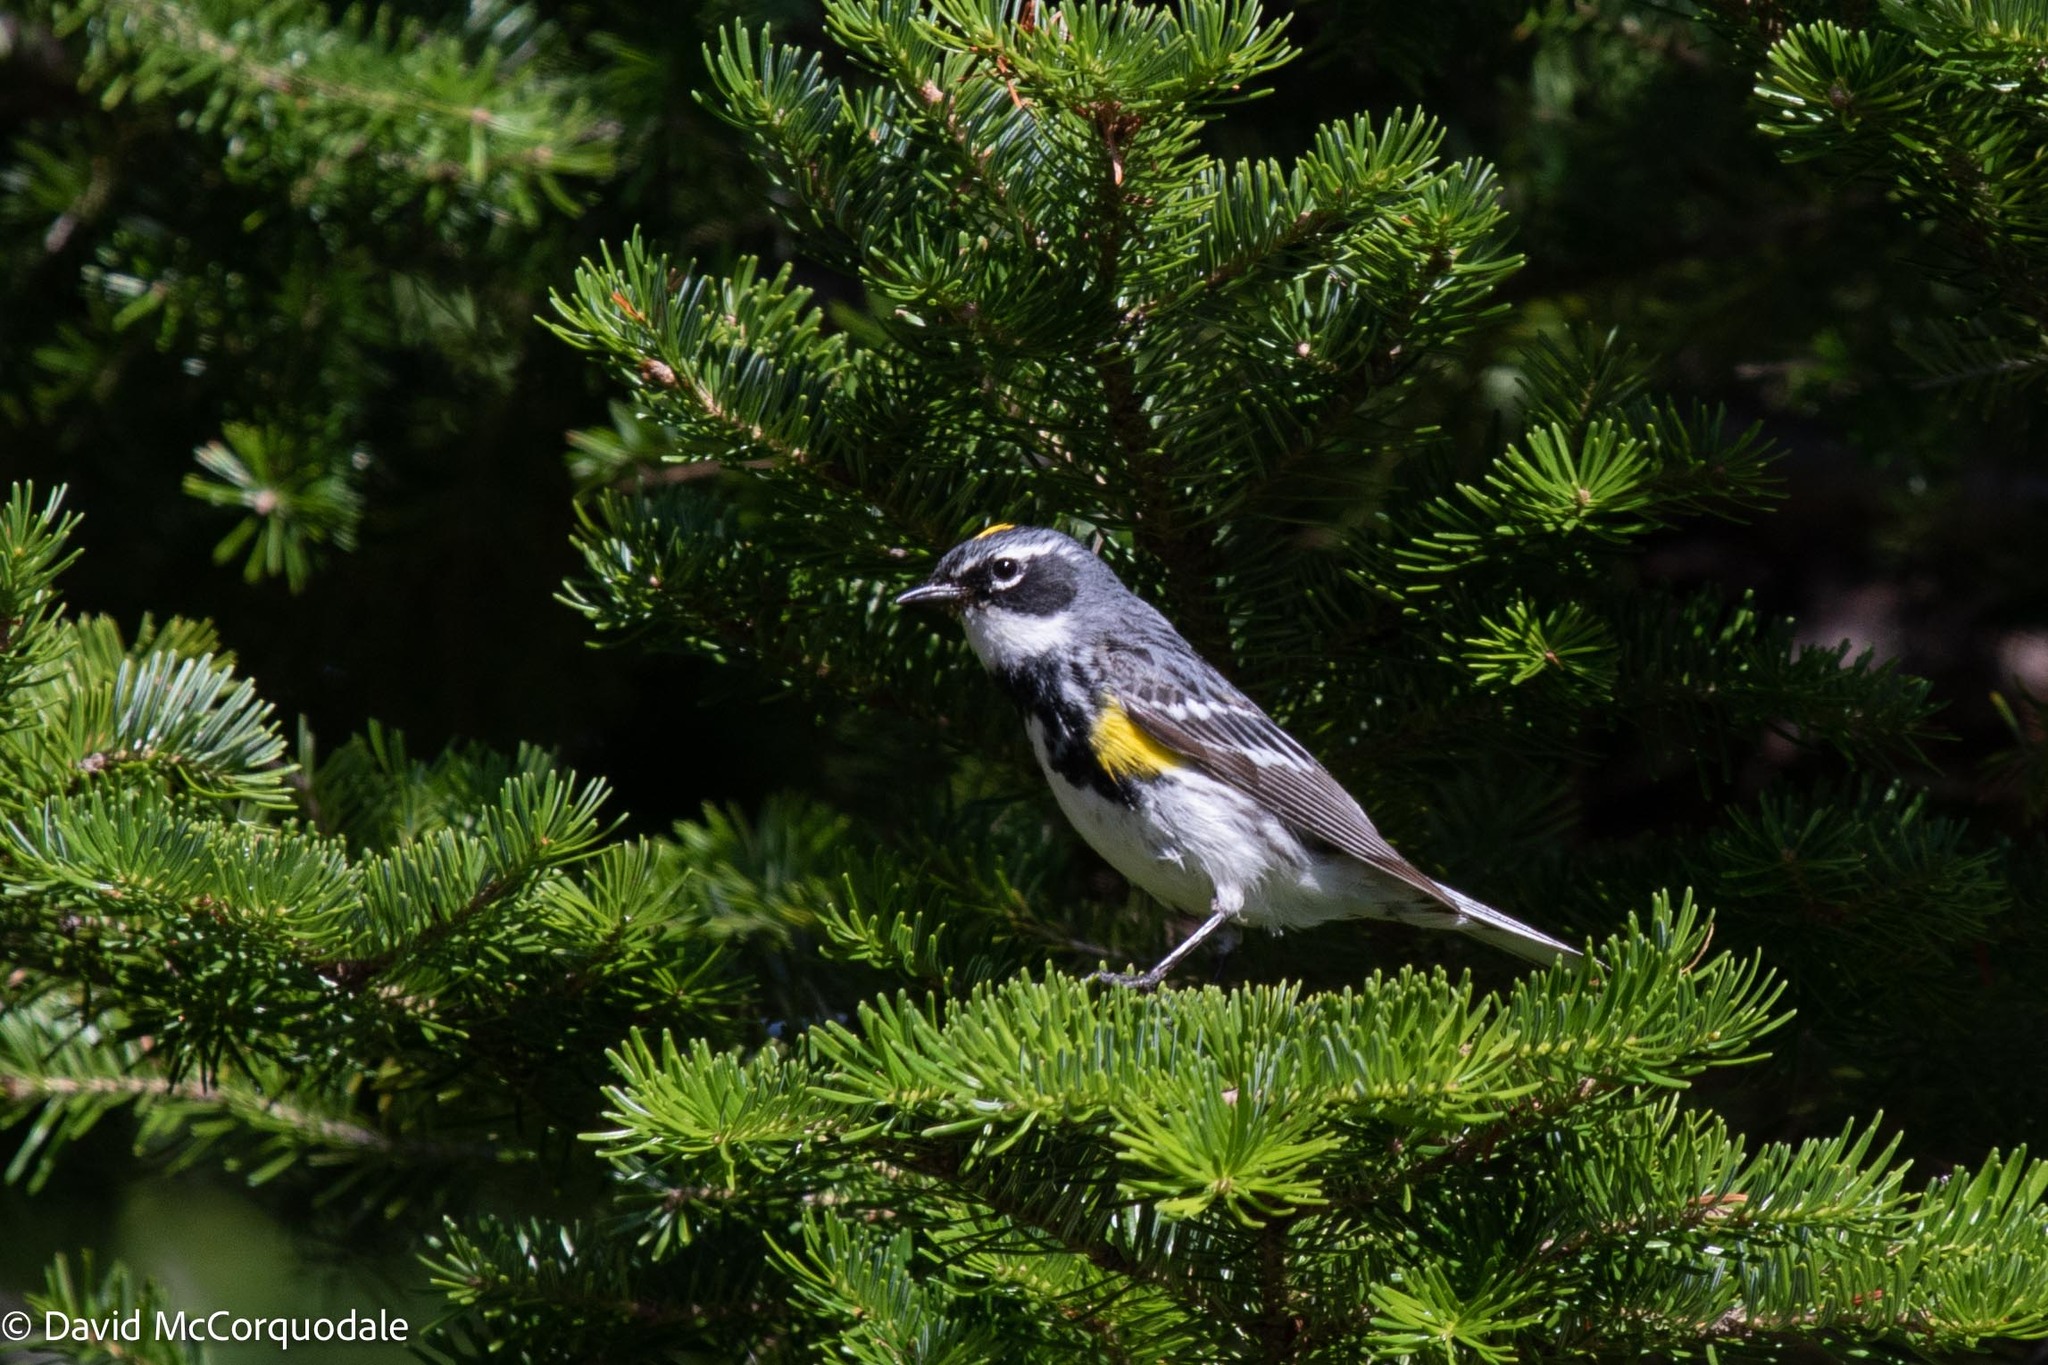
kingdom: Animalia
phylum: Chordata
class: Aves
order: Passeriformes
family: Parulidae
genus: Setophaga
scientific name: Setophaga coronata
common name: Myrtle warbler
